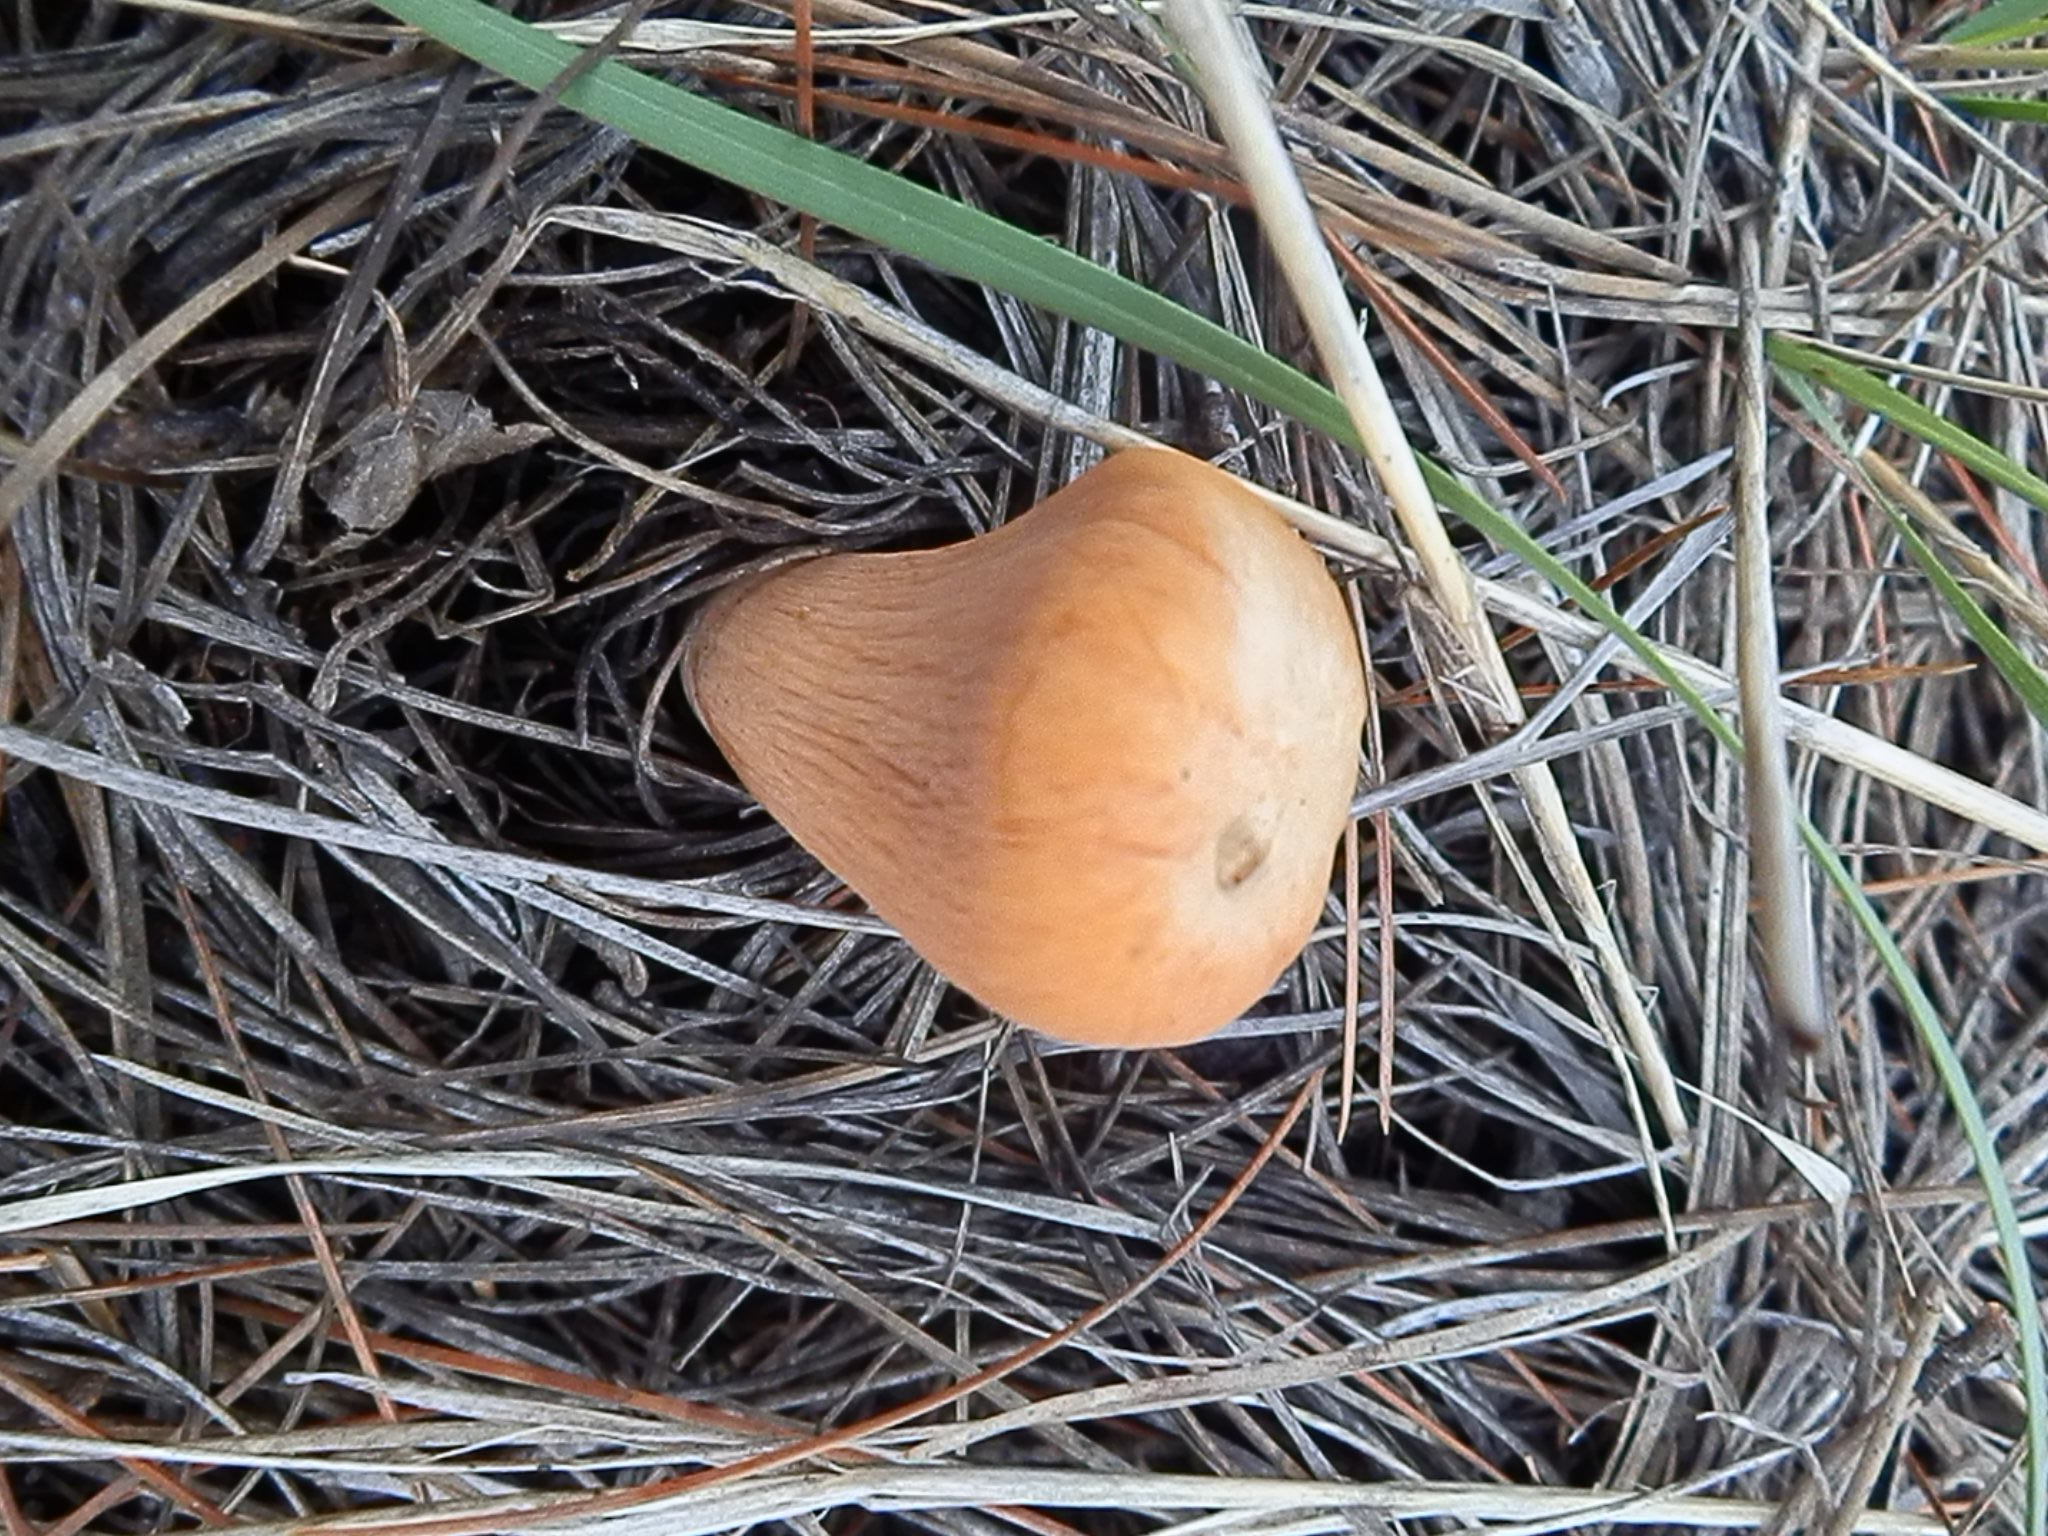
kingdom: Fungi
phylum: Basidiomycota
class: Agaricomycetes
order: Gomphales
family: Clavariadelphaceae
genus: Clavariadelphus
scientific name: Clavariadelphus truncatus
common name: Truncated club
